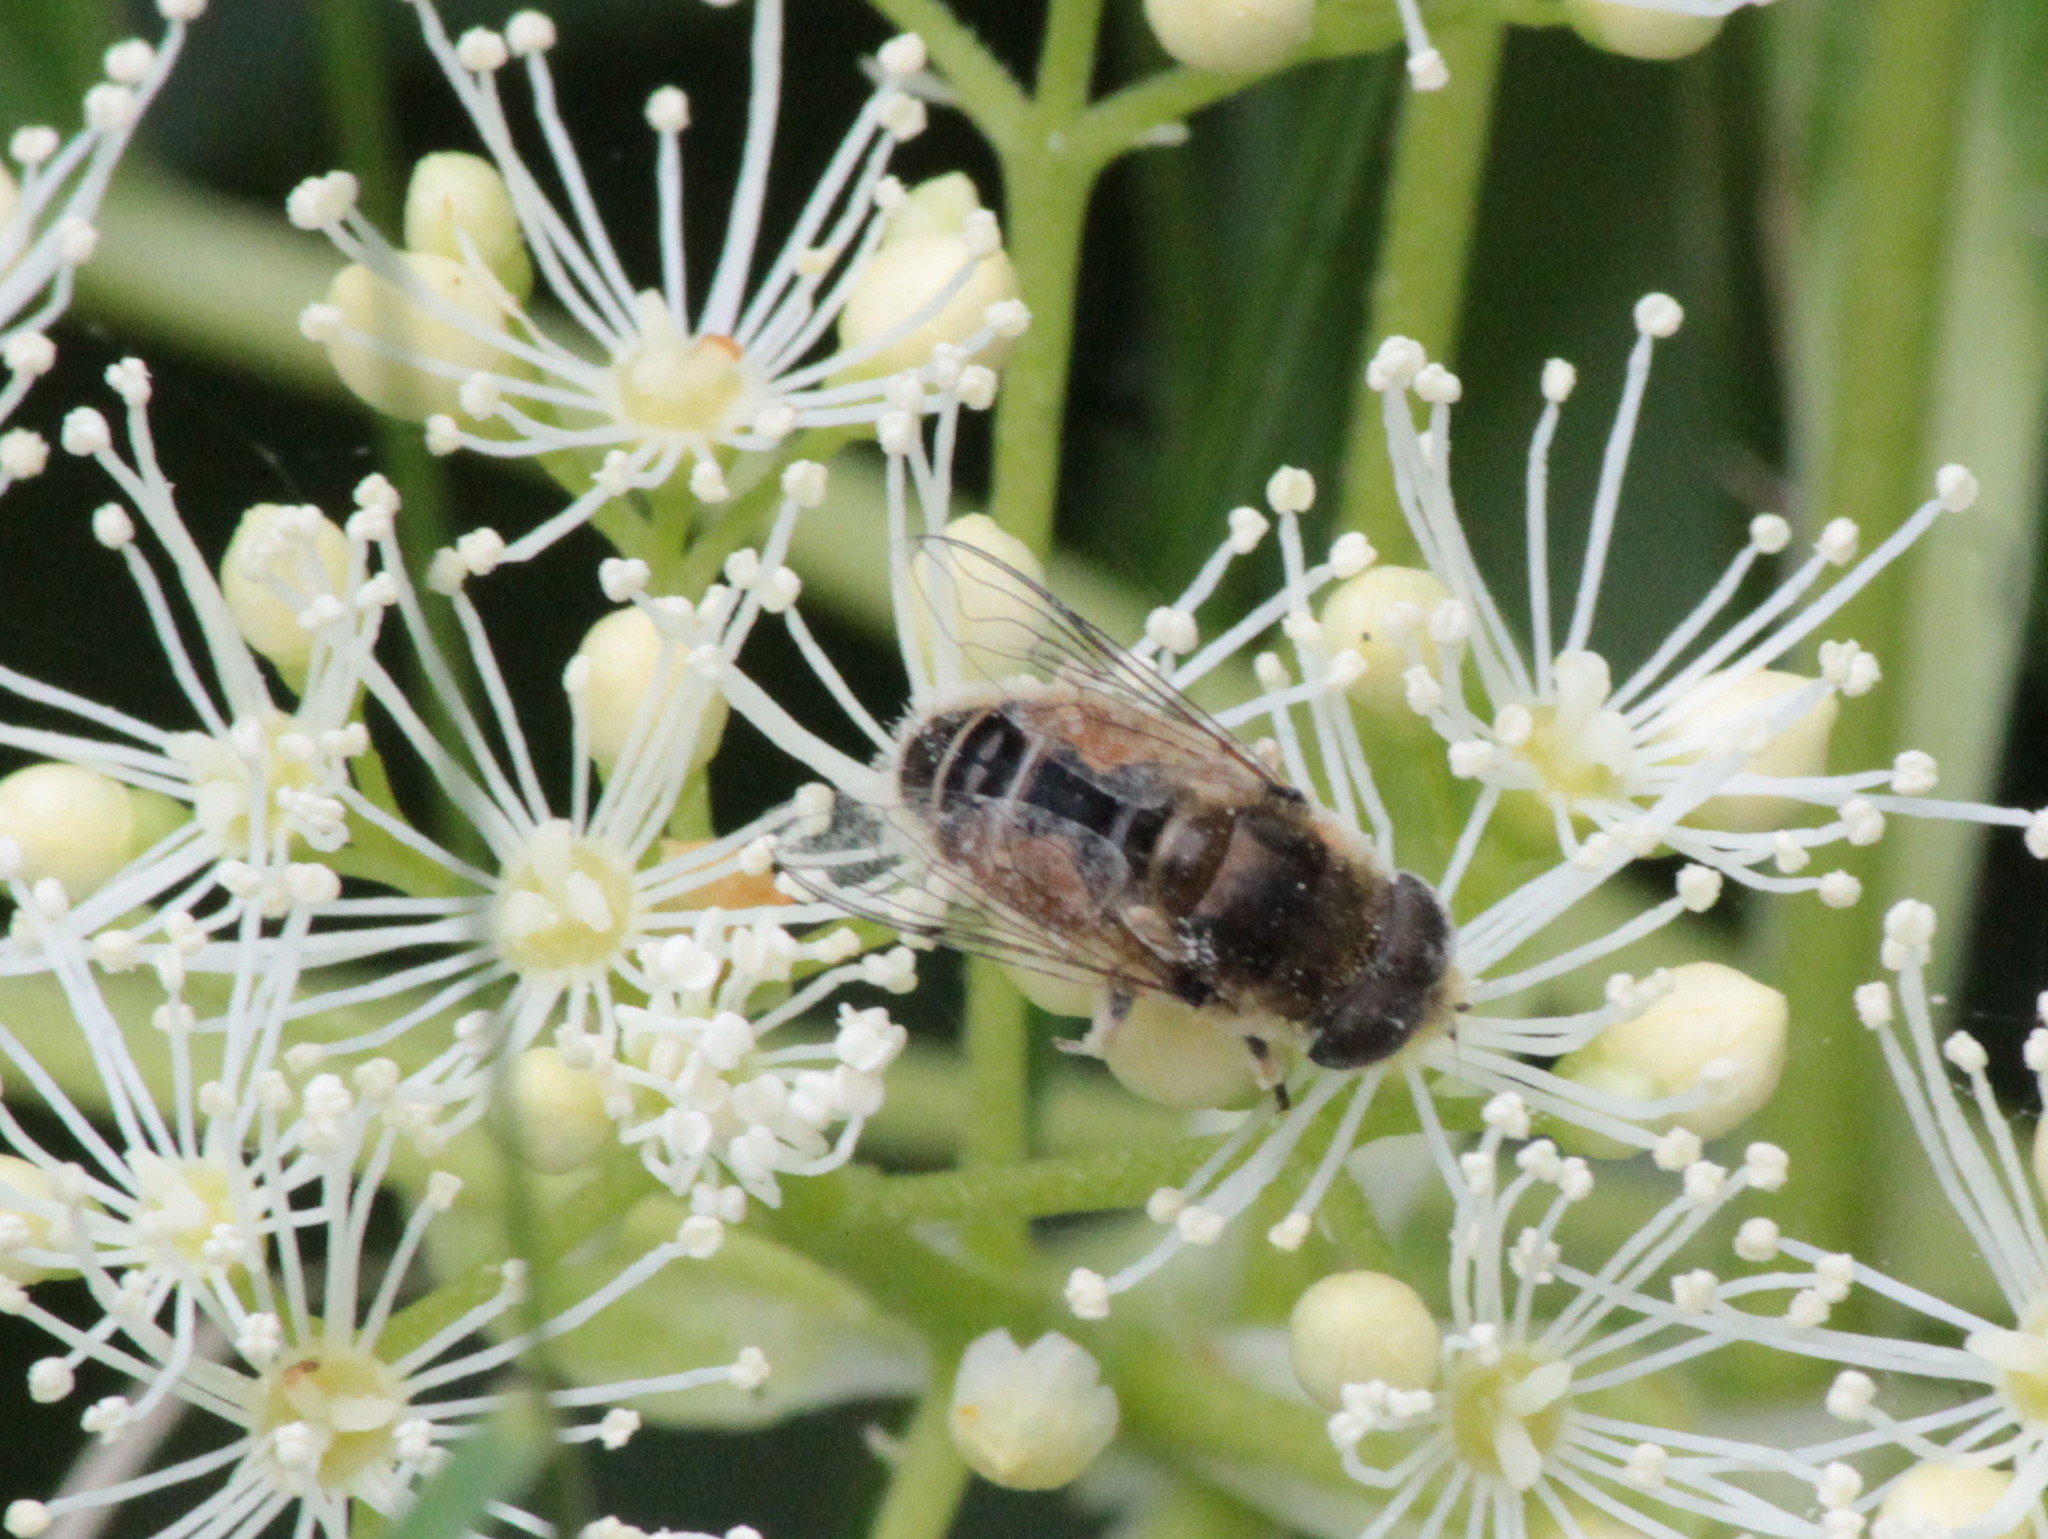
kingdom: Animalia
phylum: Arthropoda
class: Insecta
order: Diptera
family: Syrphidae
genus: Eristalis
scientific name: Eristalis arbustorum
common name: Hover fly
